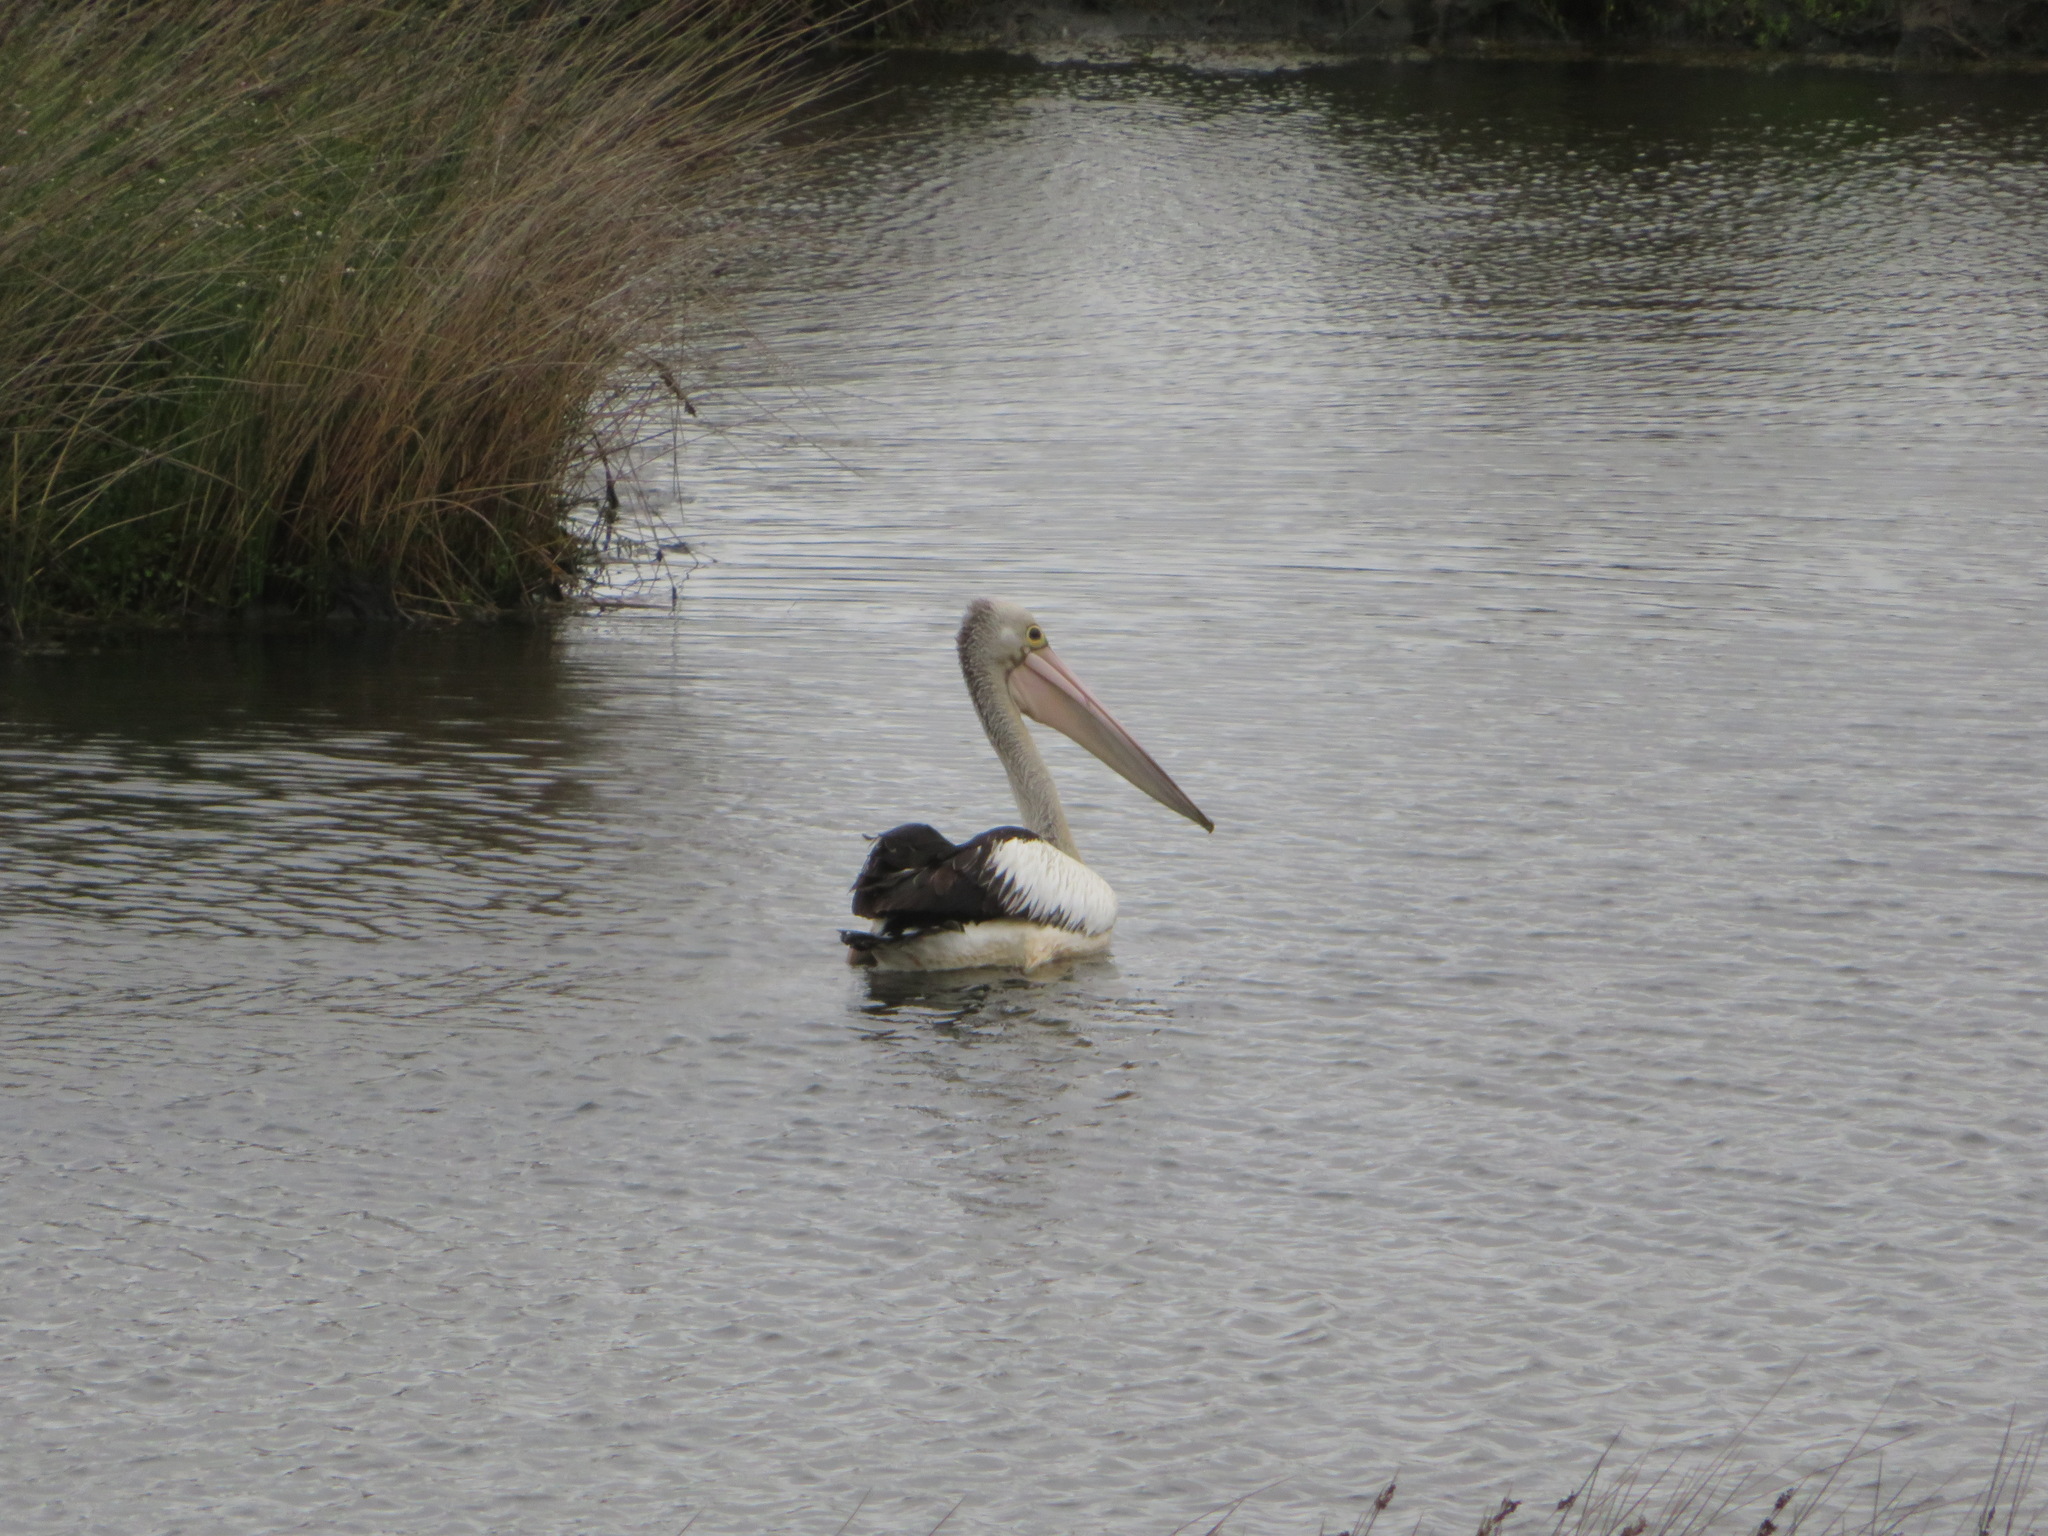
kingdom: Animalia
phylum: Chordata
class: Aves
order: Pelecaniformes
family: Pelecanidae
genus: Pelecanus
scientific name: Pelecanus conspicillatus
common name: Australian pelican
